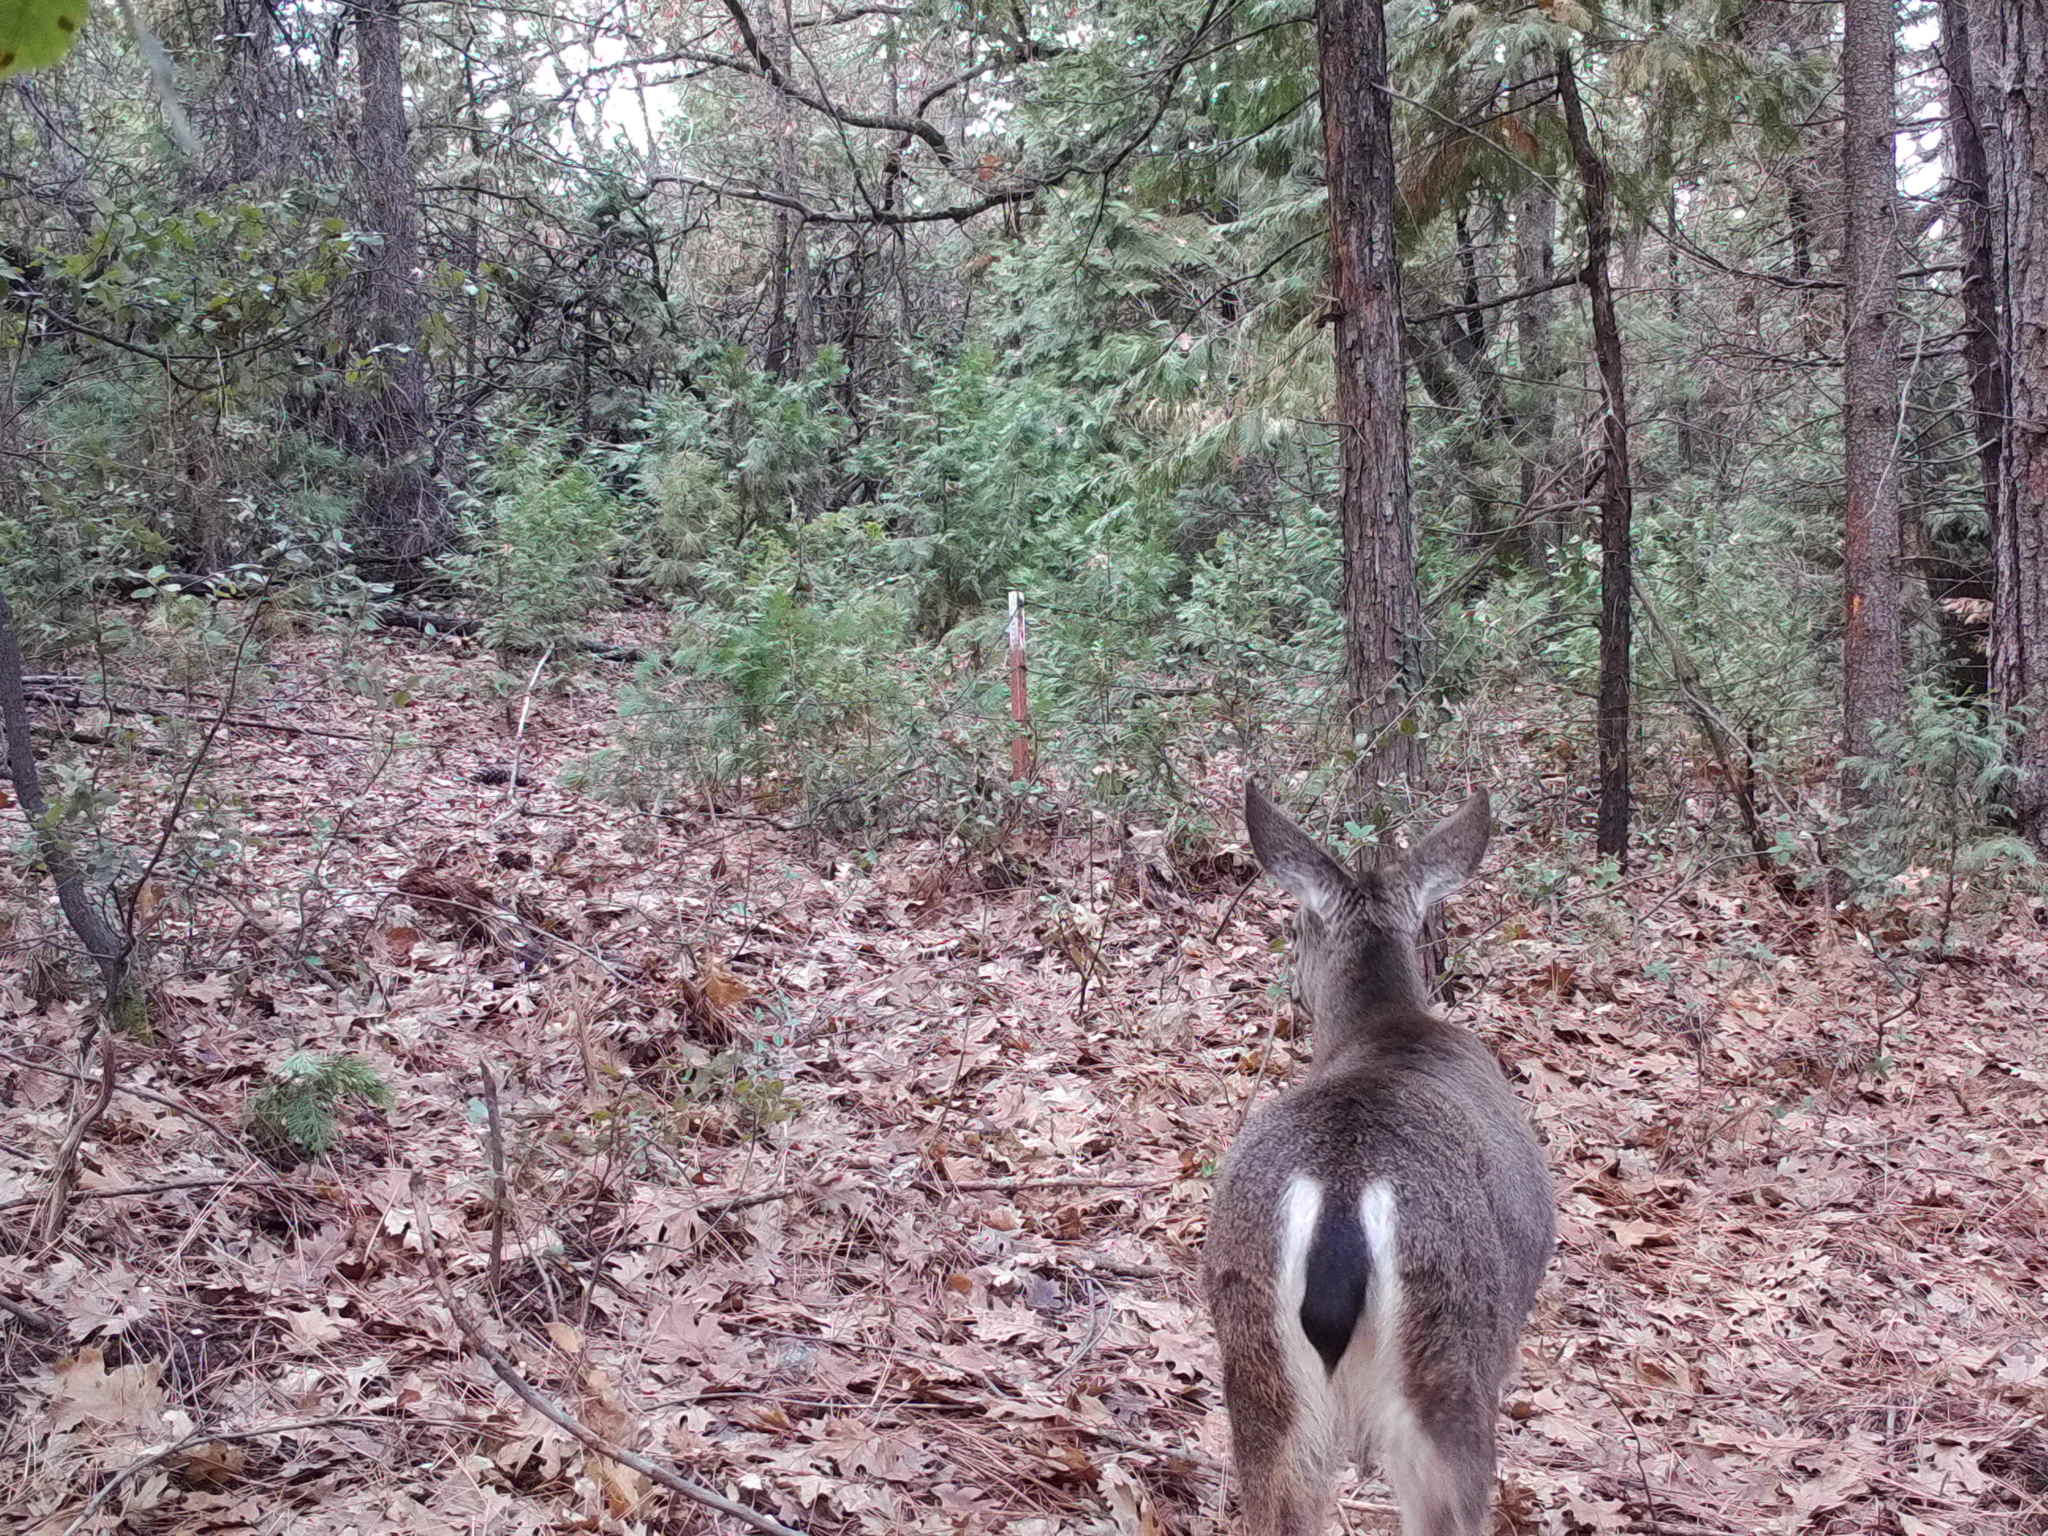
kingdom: Animalia
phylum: Chordata
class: Mammalia
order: Artiodactyla
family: Cervidae
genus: Odocoileus
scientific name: Odocoileus hemionus
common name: Mule deer
